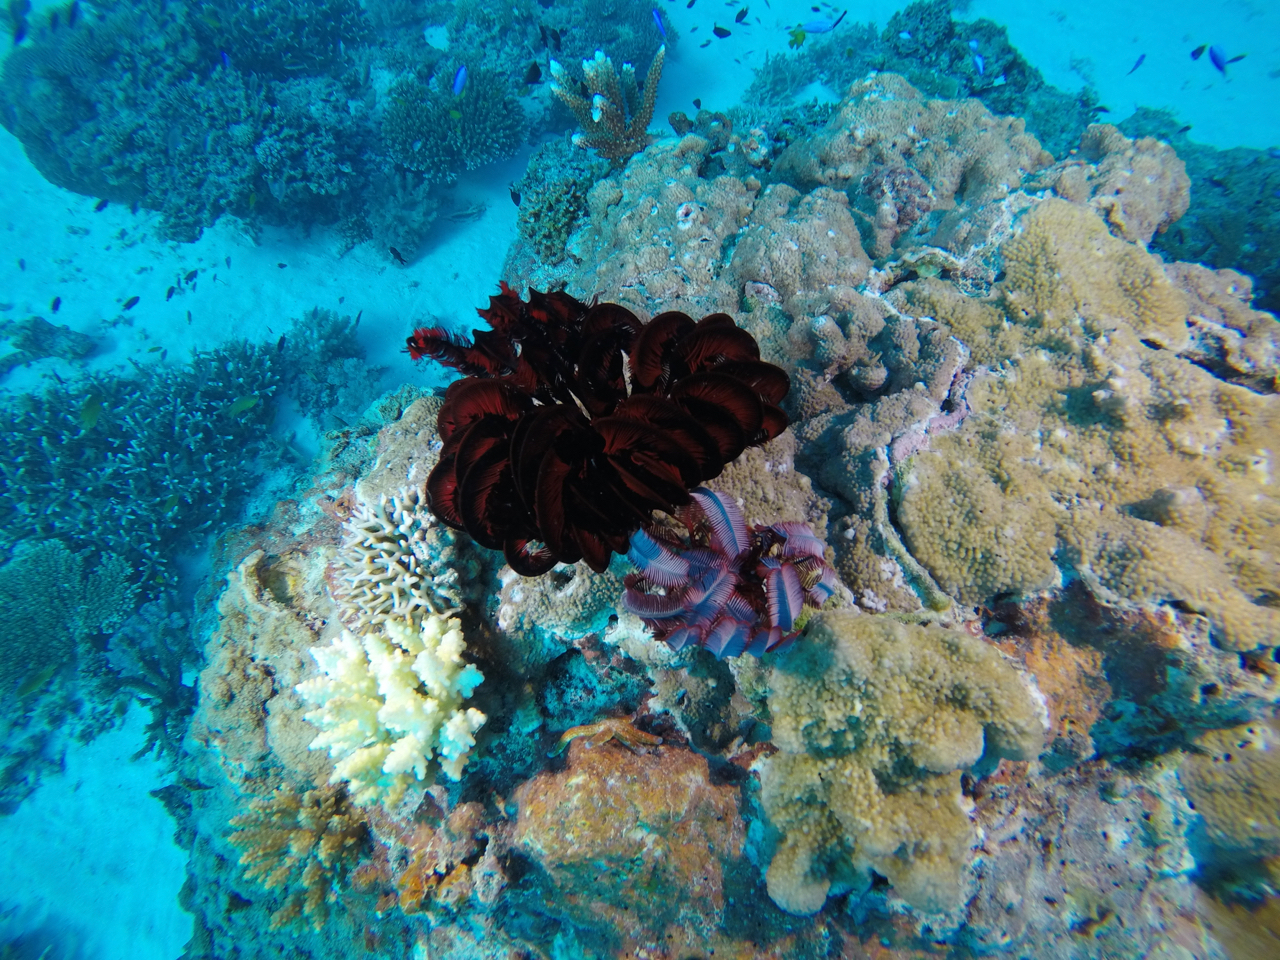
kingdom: Animalia
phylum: Echinodermata
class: Crinoidea
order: Comatulida
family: Himerometridae
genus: Himerometra
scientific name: Himerometra robustipinna
